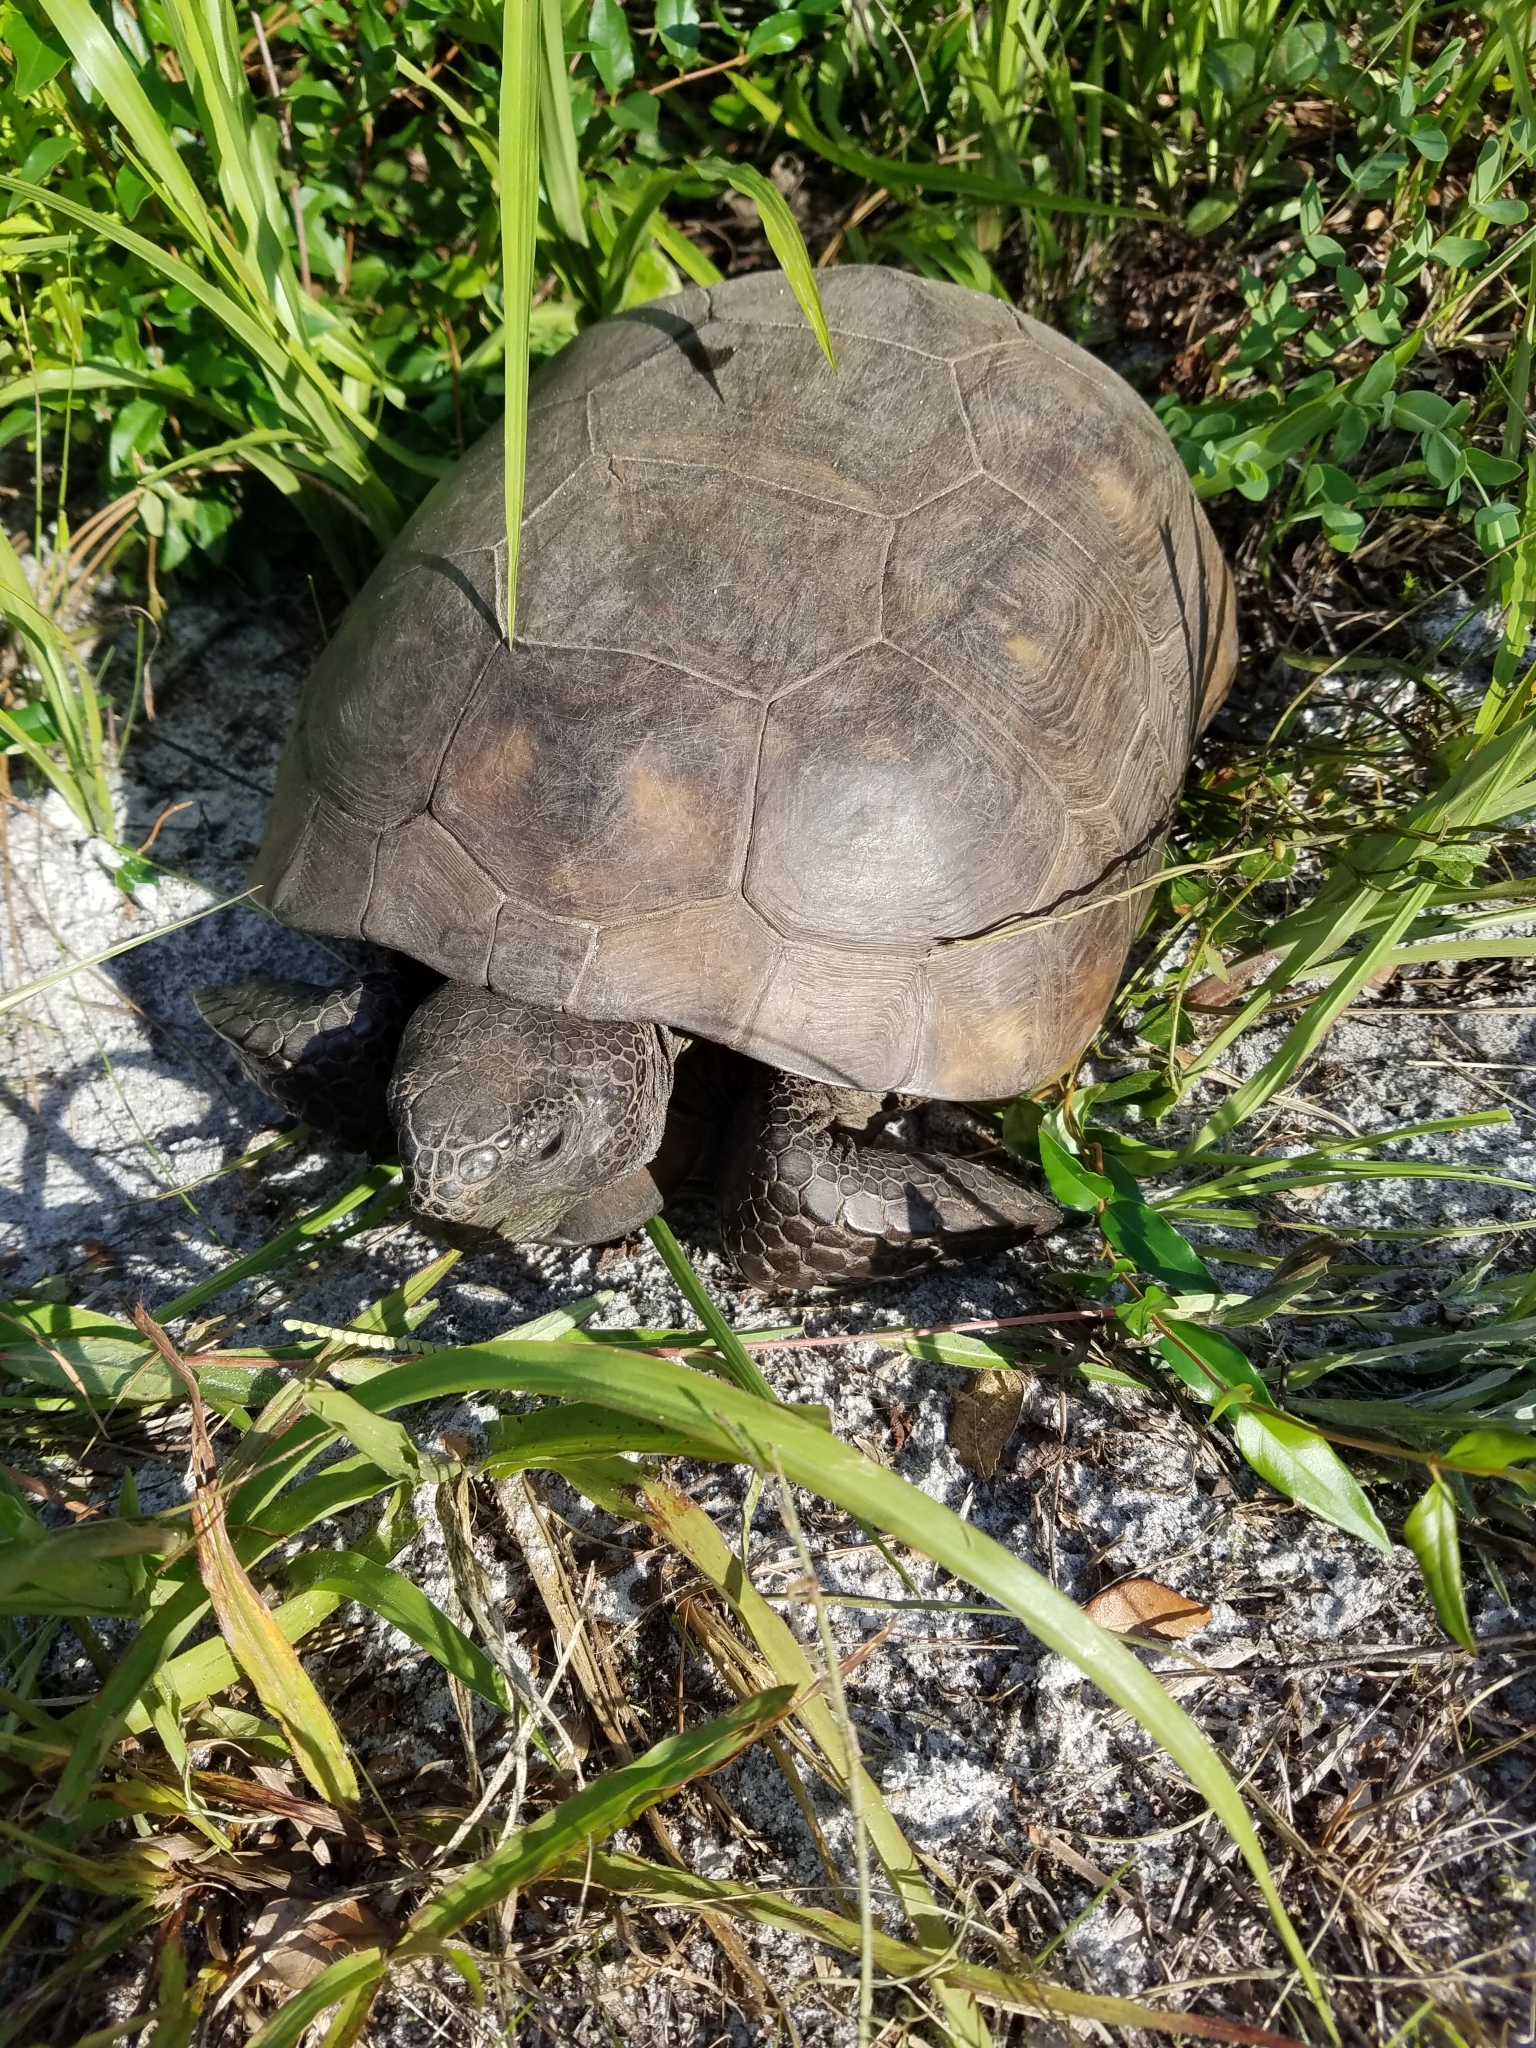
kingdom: Animalia
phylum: Chordata
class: Testudines
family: Testudinidae
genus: Gopherus
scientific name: Gopherus polyphemus
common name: Florida gopher tortoise
